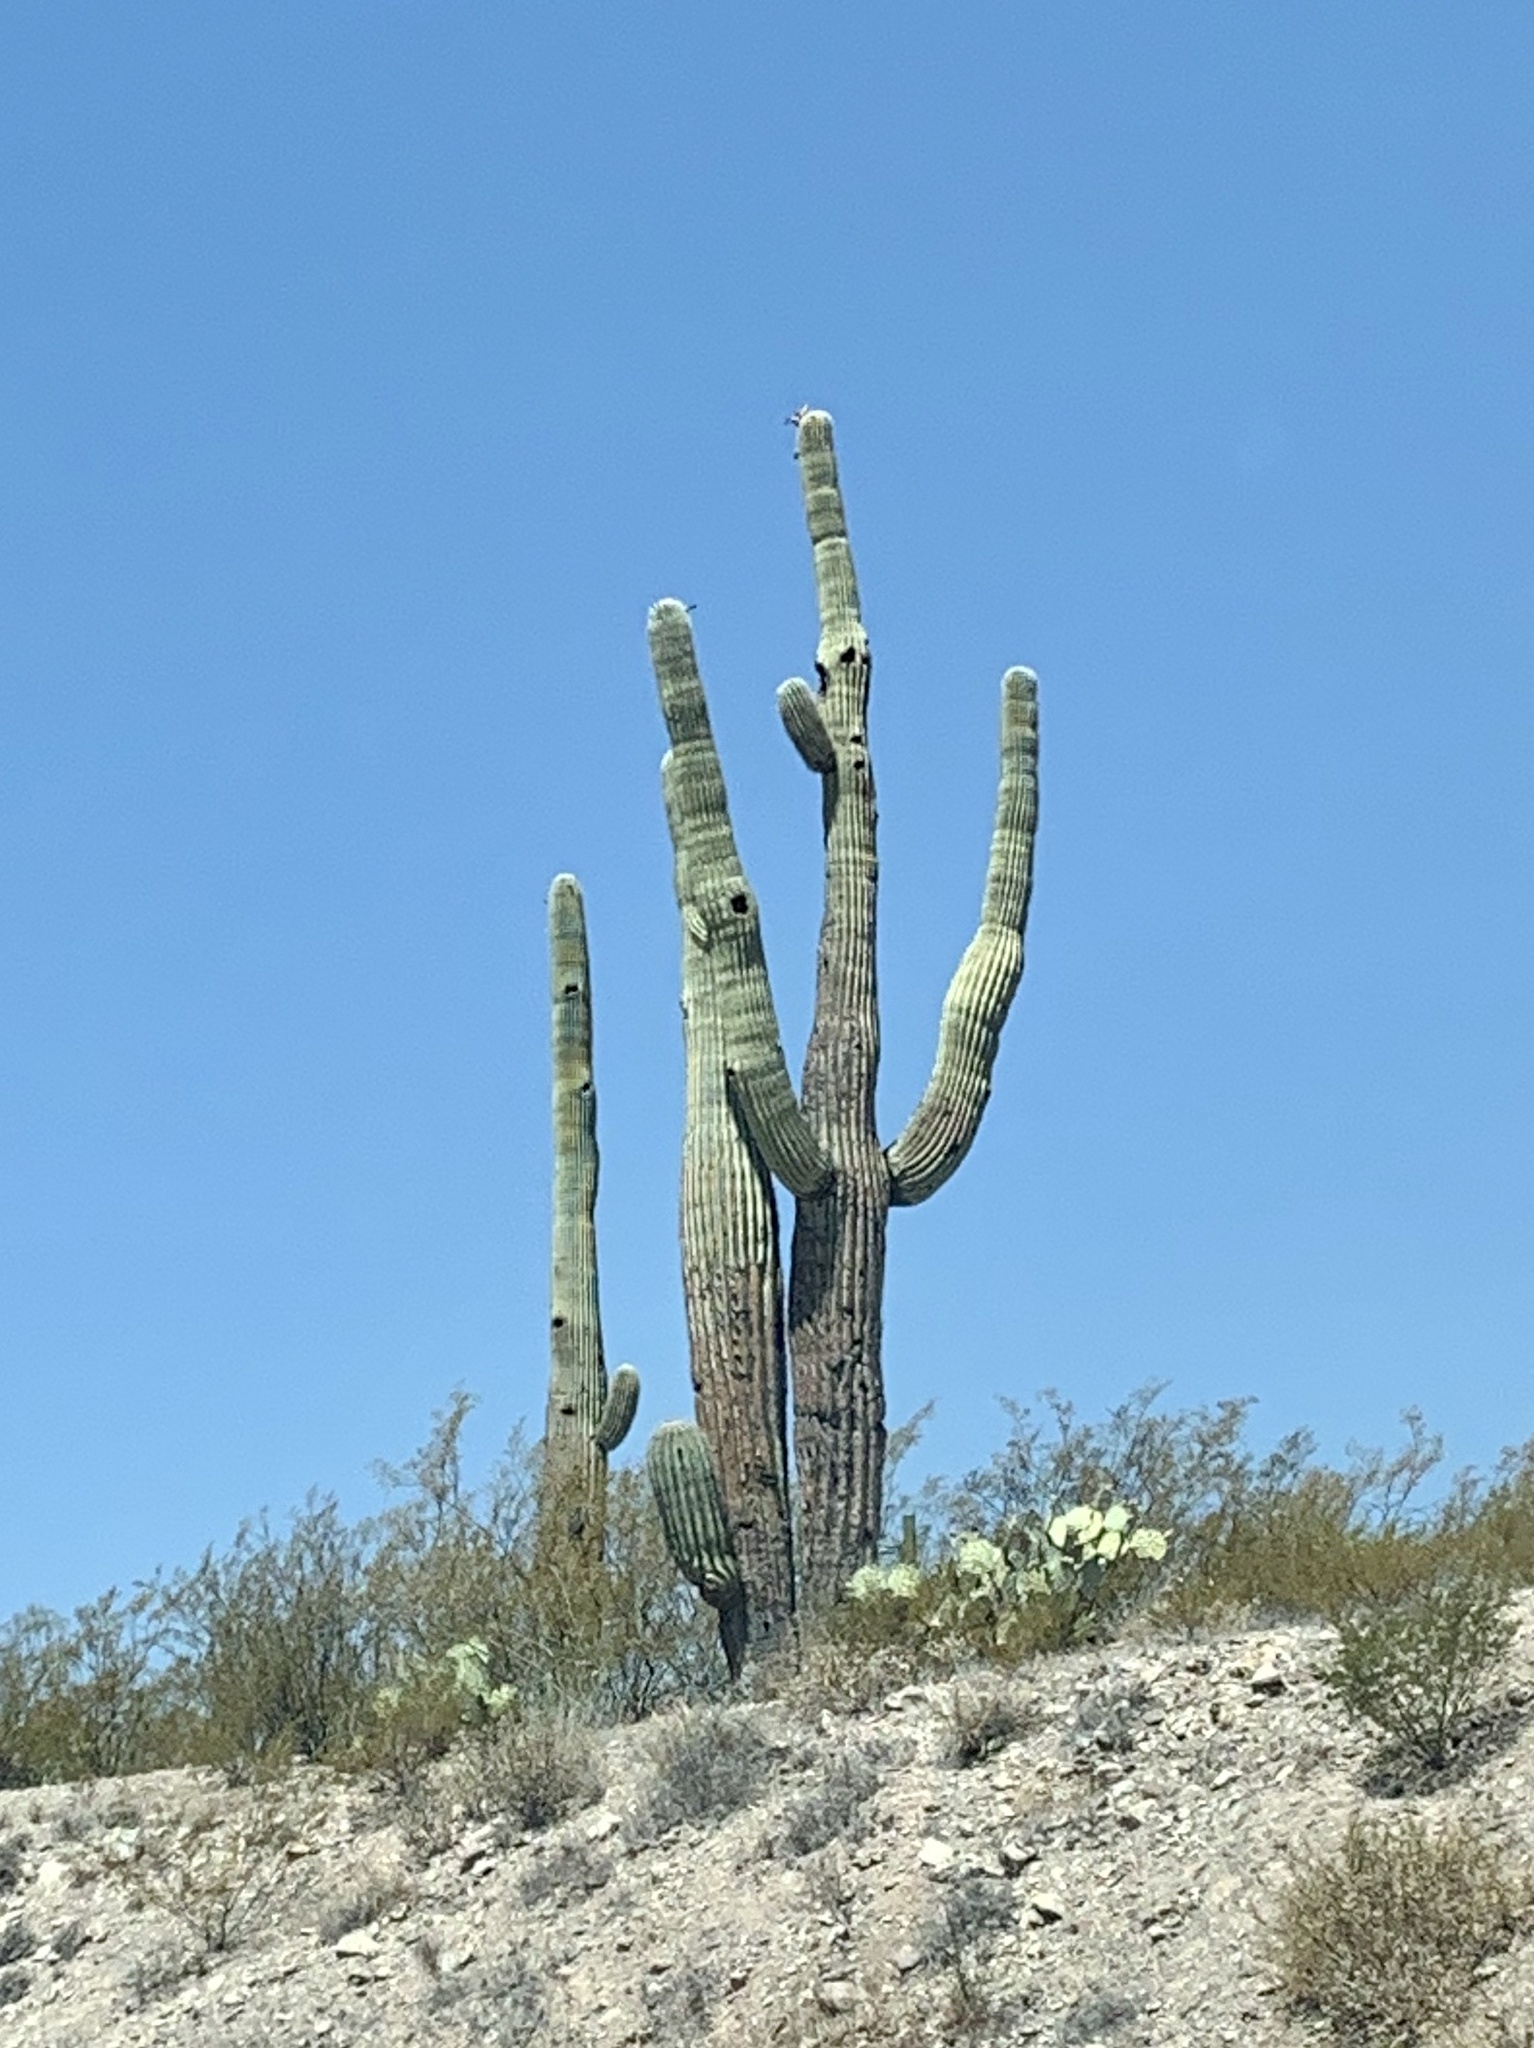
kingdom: Plantae
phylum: Tracheophyta
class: Magnoliopsida
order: Caryophyllales
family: Cactaceae
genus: Carnegiea
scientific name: Carnegiea gigantea
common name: Saguaro
